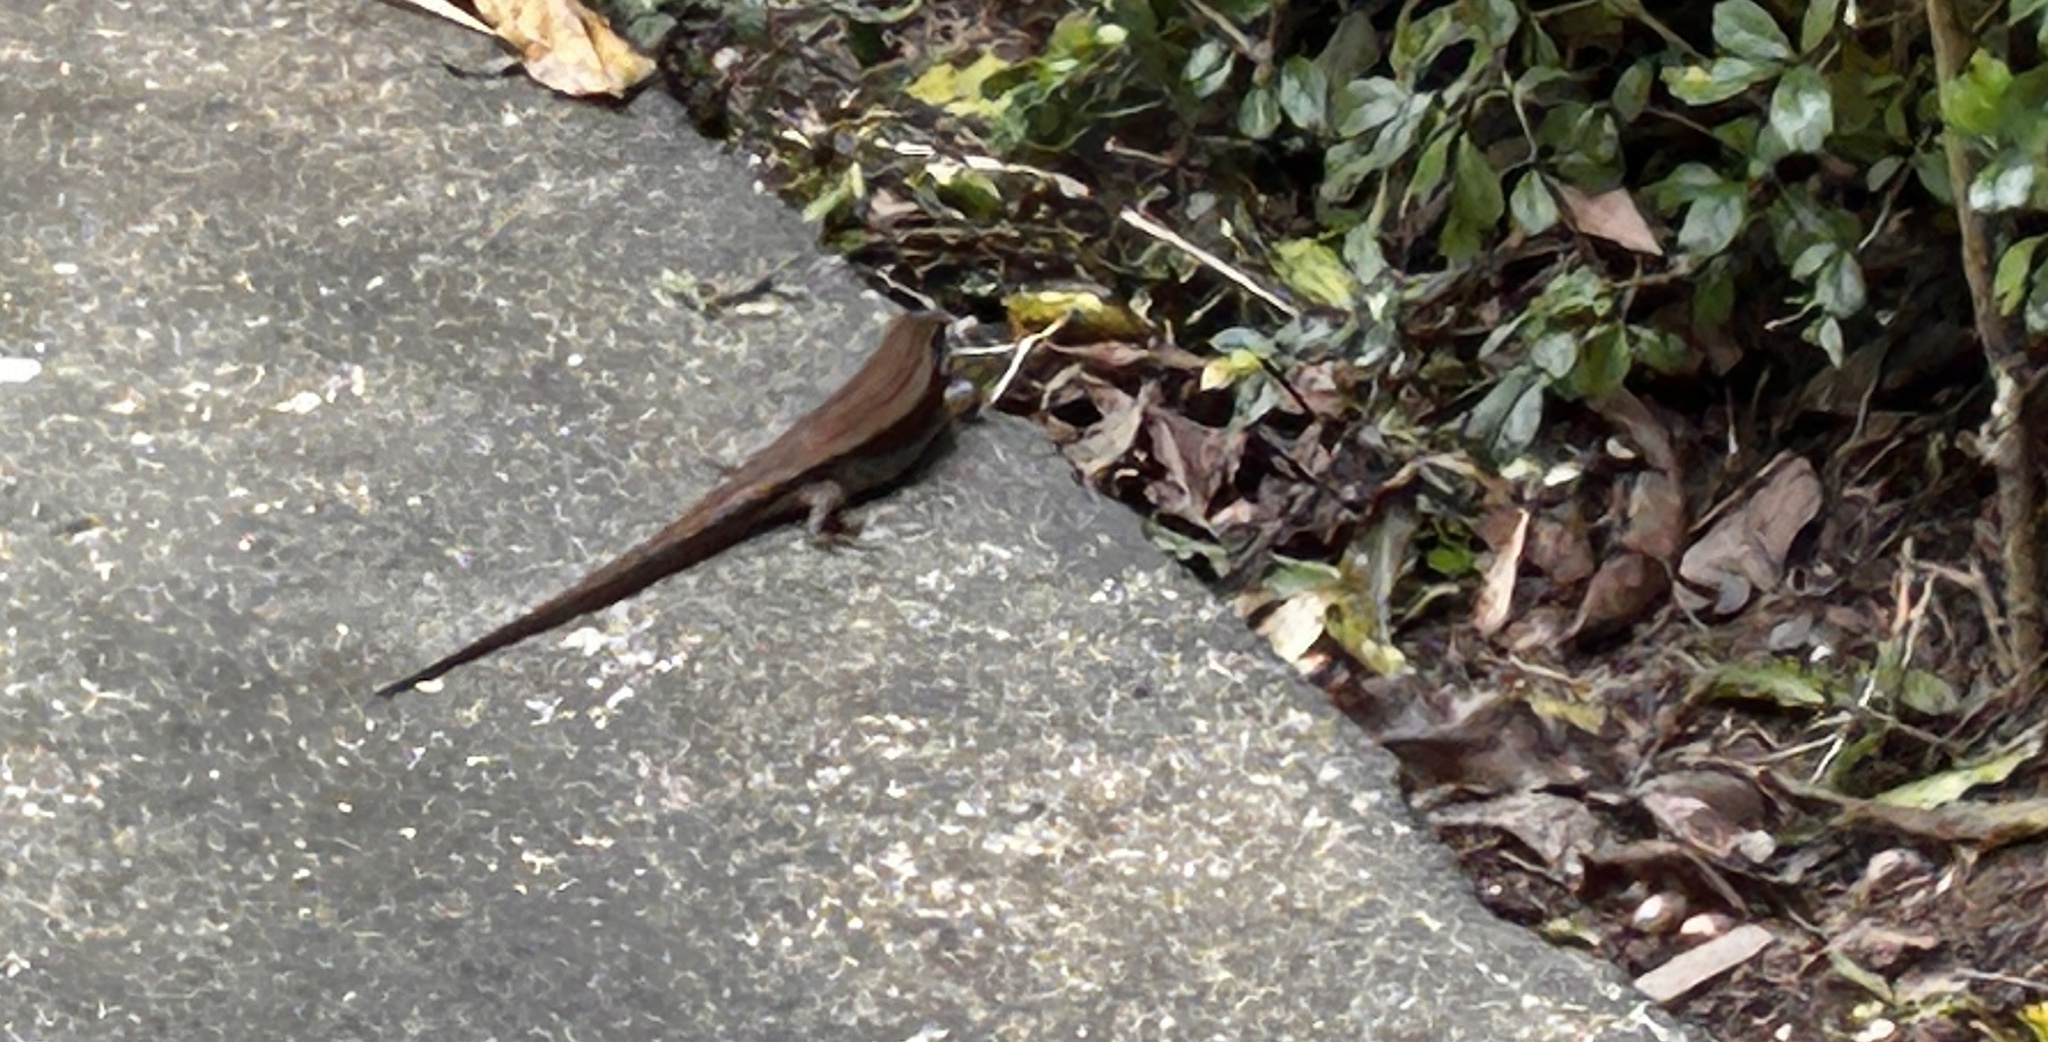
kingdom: Animalia
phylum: Chordata
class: Squamata
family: Scincidae
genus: Eutropis
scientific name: Eutropis multifasciata
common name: Common mabuya
